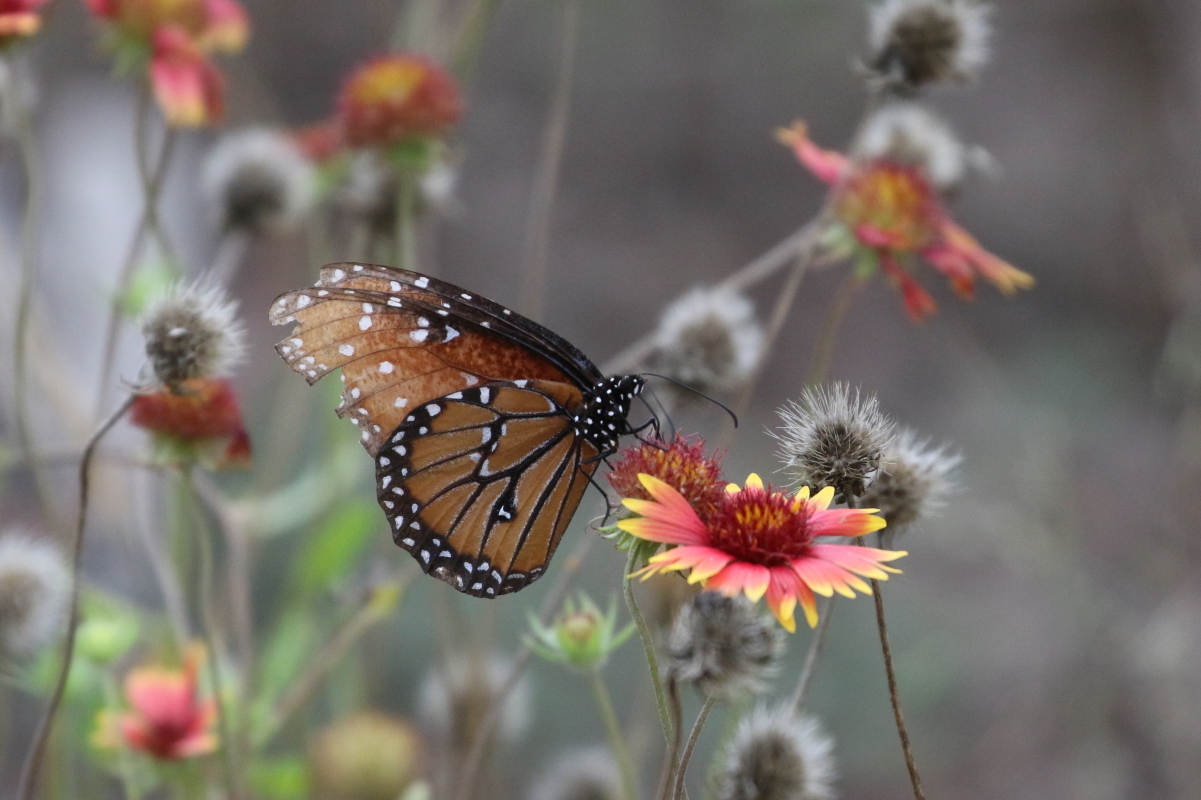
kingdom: Animalia
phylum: Arthropoda
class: Insecta
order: Lepidoptera
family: Nymphalidae
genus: Danaus
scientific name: Danaus gilippus
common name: Queen
